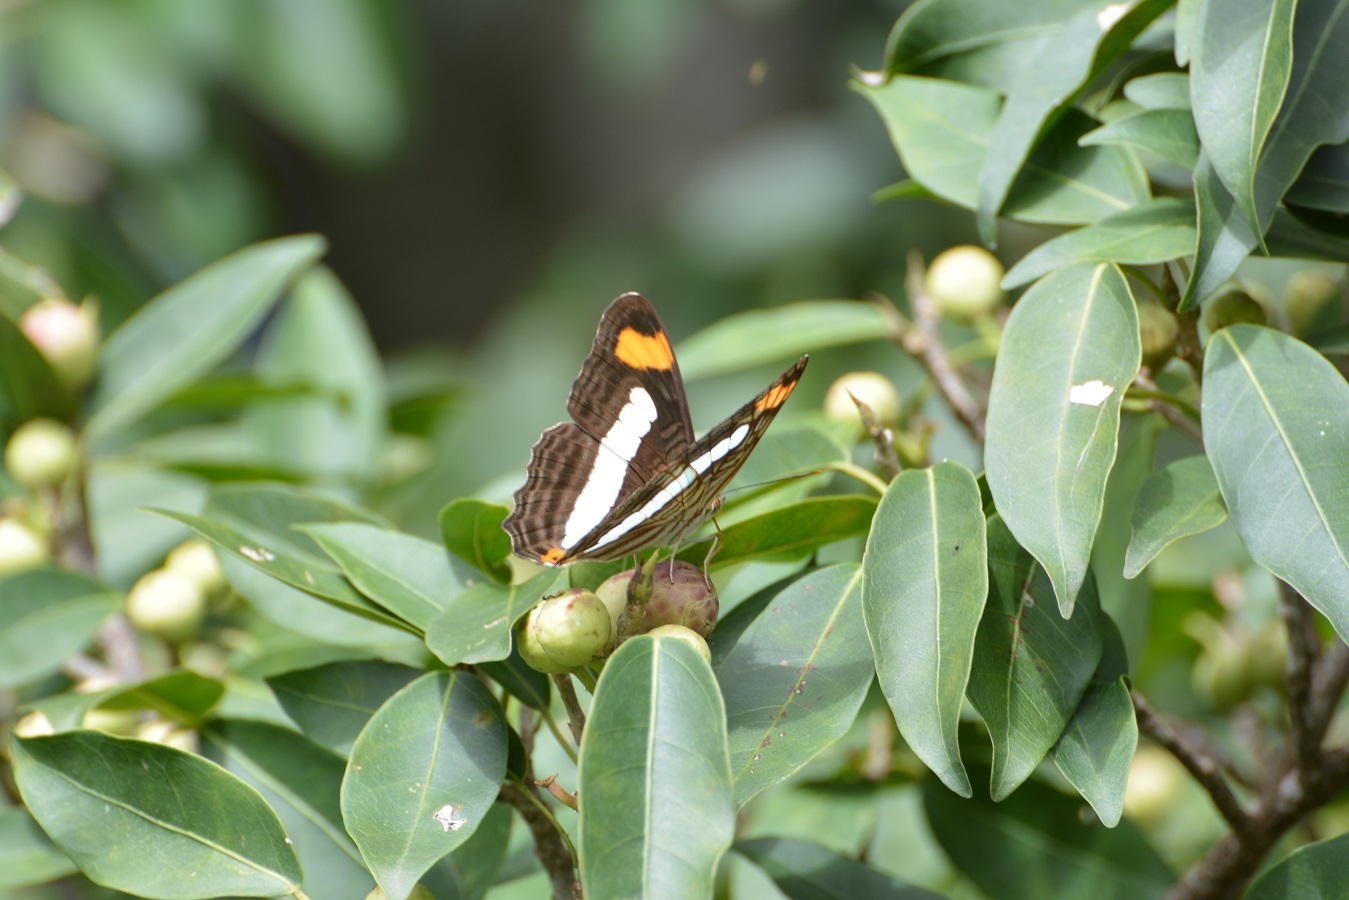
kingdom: Animalia
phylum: Arthropoda
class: Insecta
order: Lepidoptera
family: Nymphalidae
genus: Limenitis
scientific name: Limenitis iphiclus
